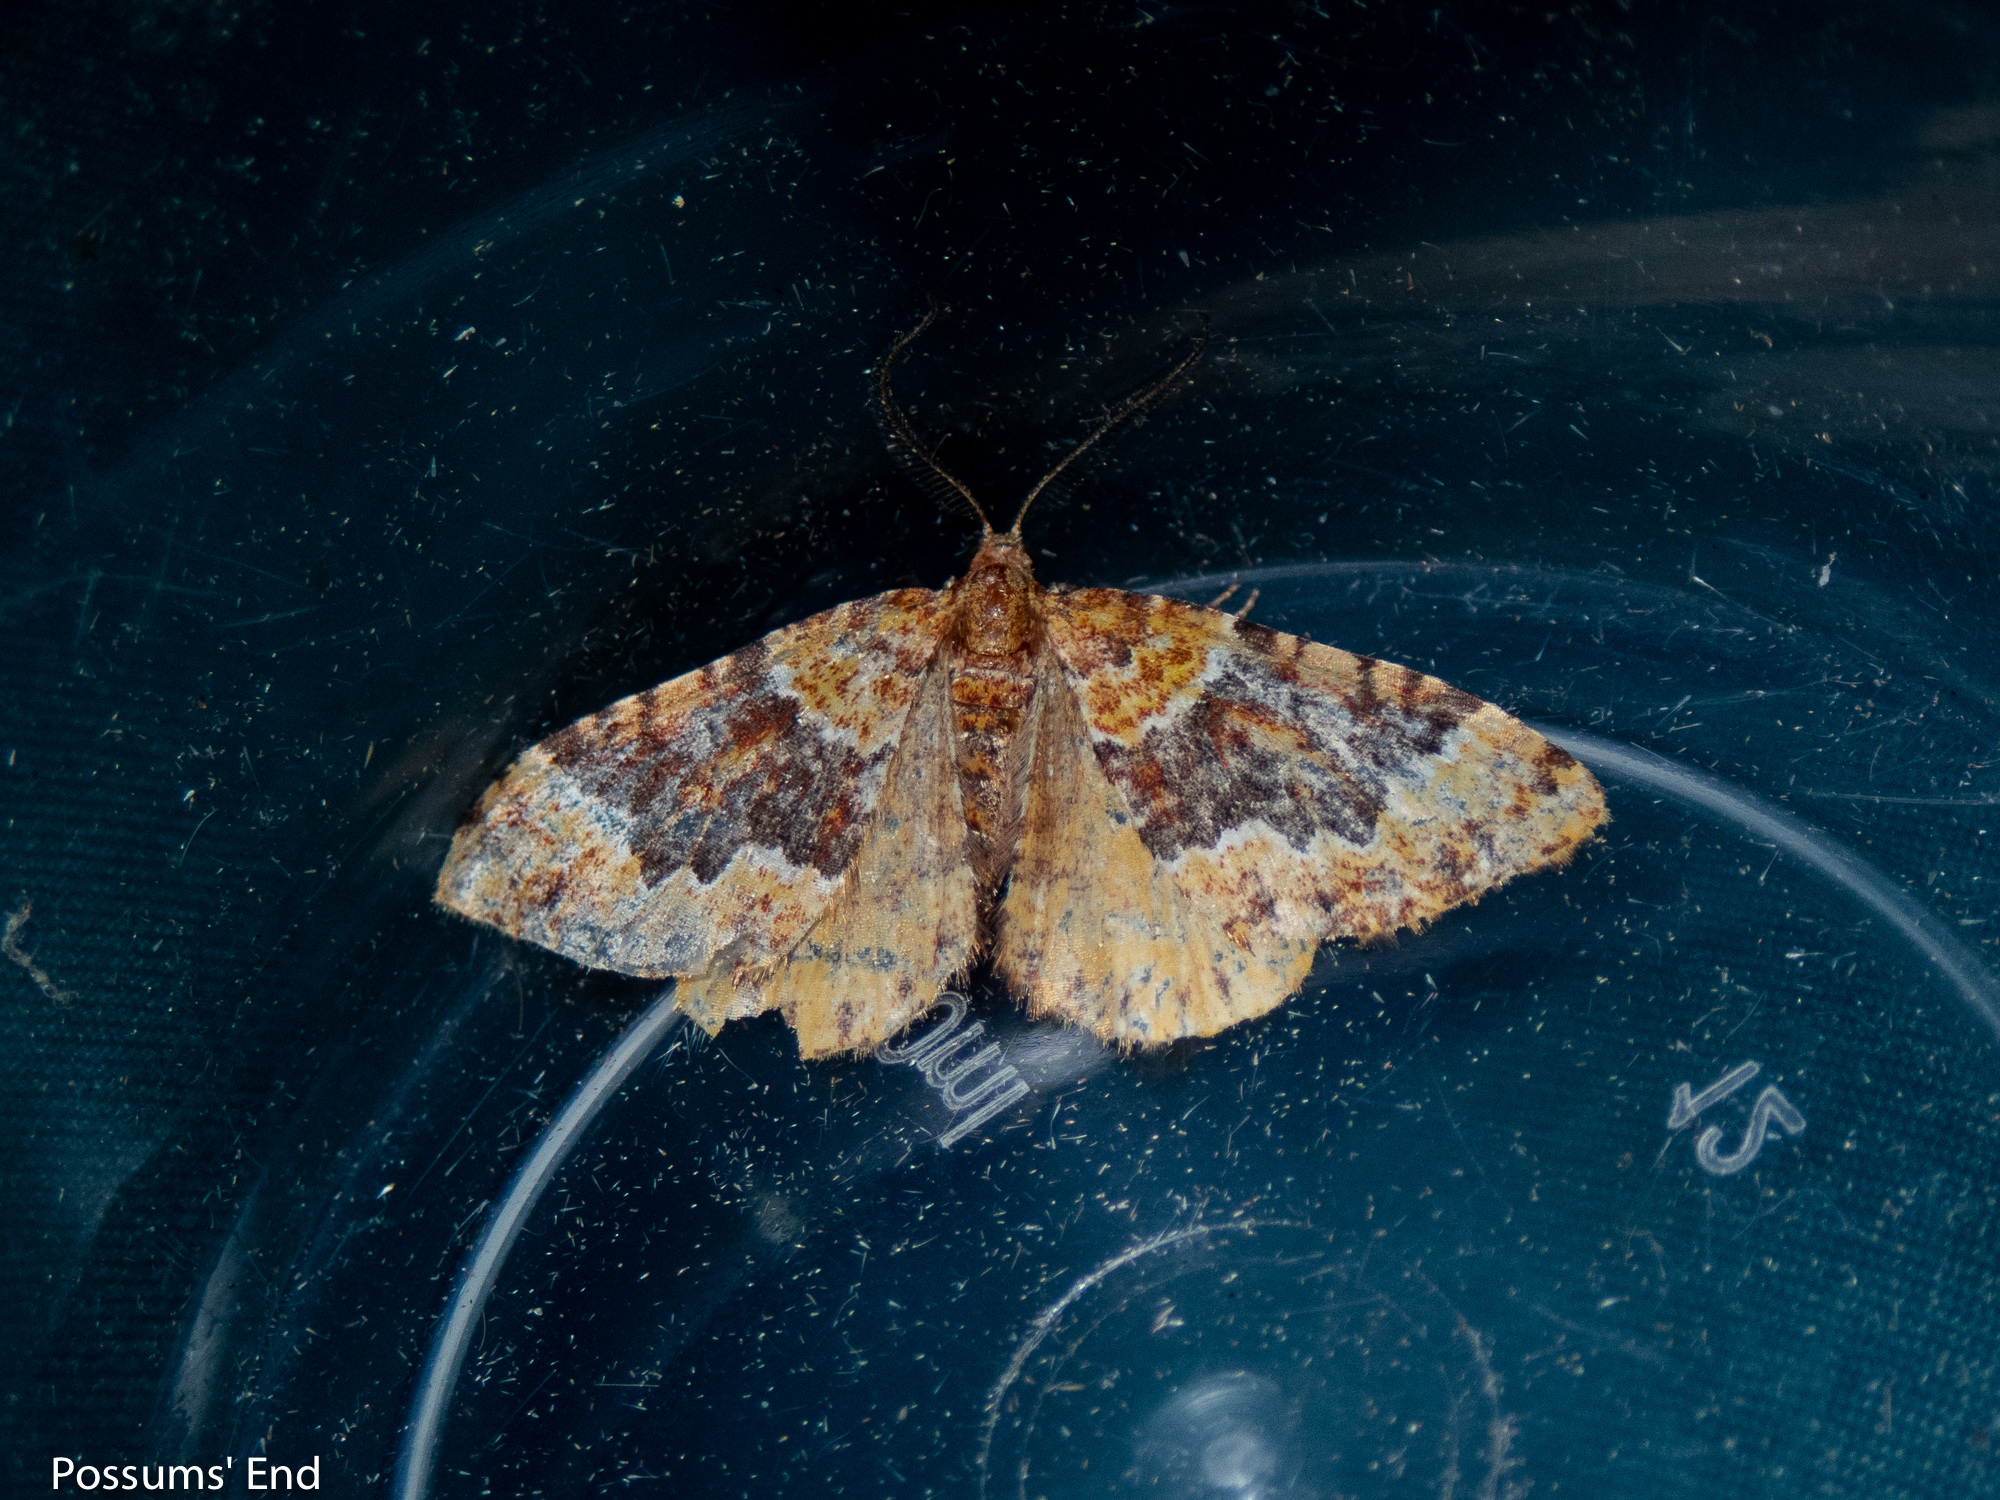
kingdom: Animalia
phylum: Arthropoda
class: Insecta
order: Lepidoptera
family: Geometridae
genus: Asaphodes
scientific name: Asaphodes prasinias
